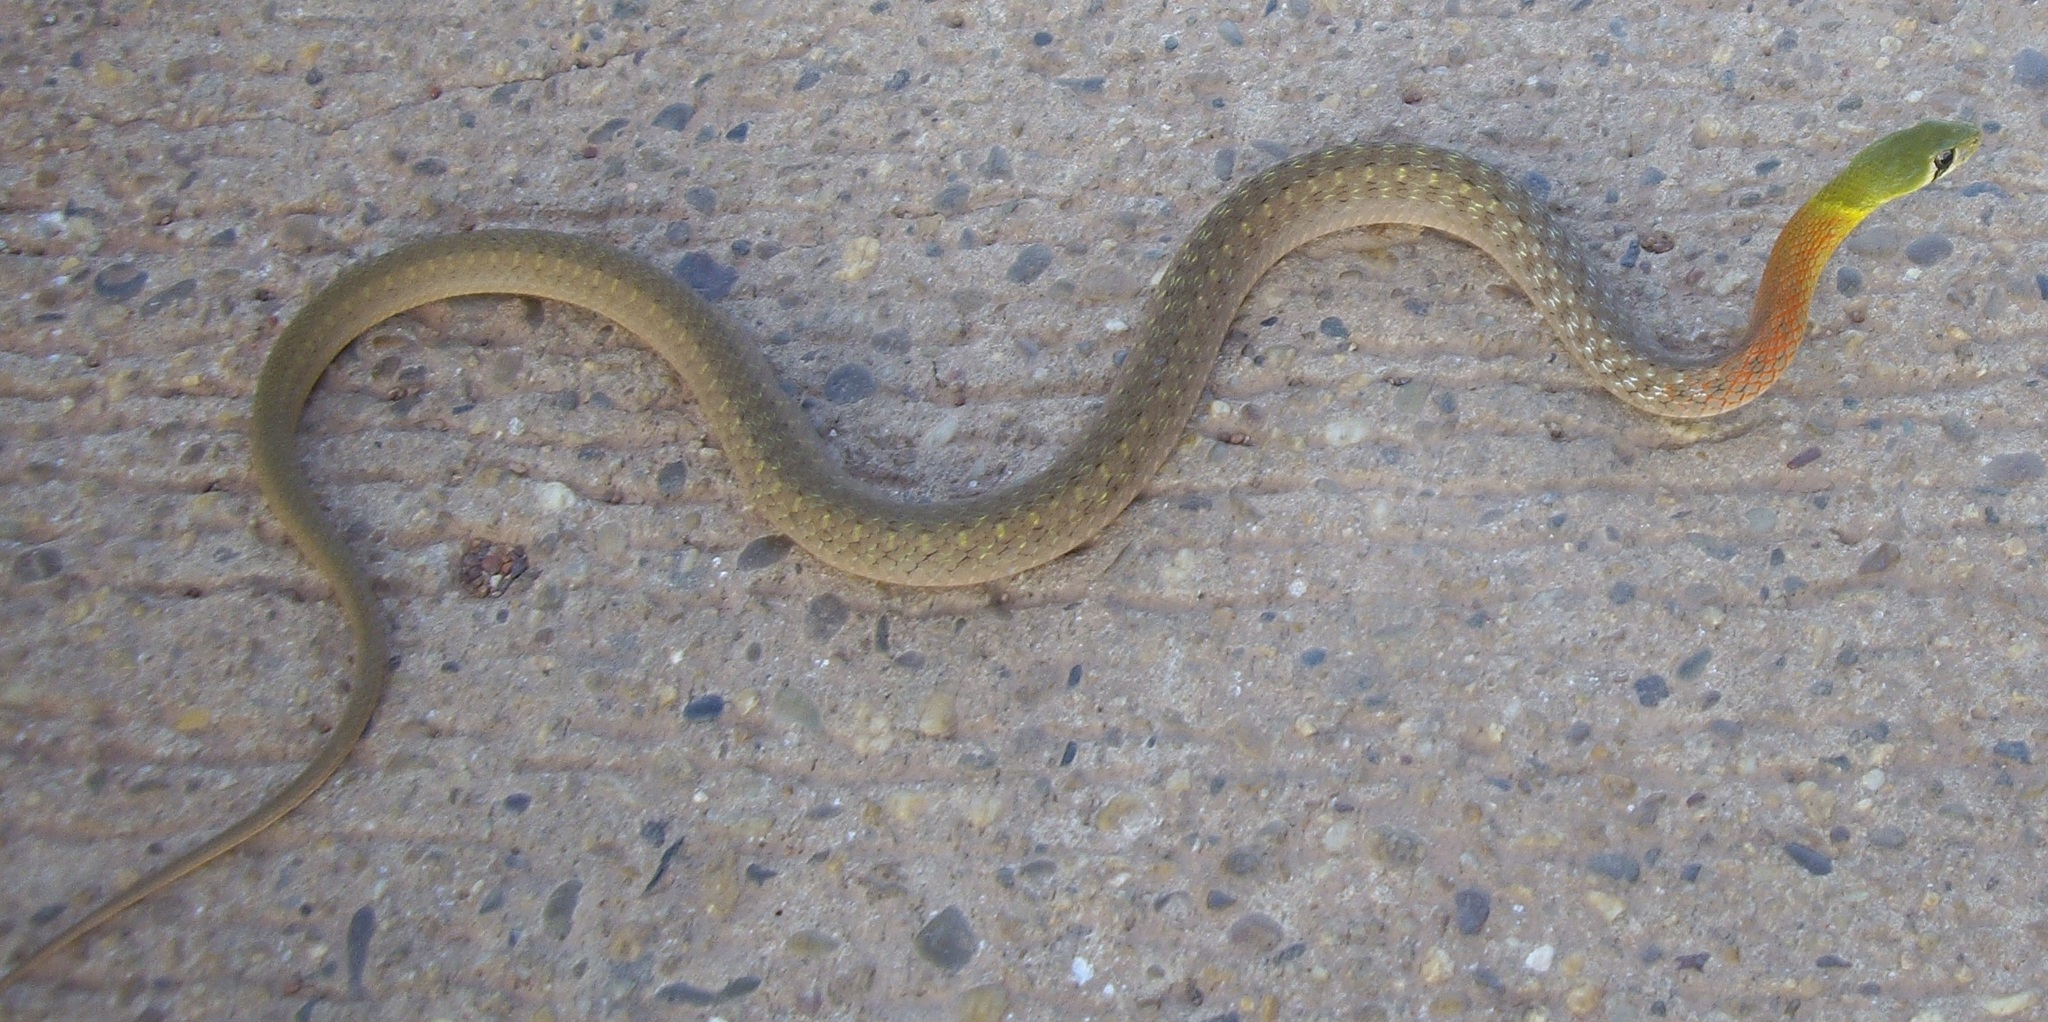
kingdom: Animalia
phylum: Chordata
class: Squamata
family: Colubridae
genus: Rhabdophis
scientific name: Rhabdophis
